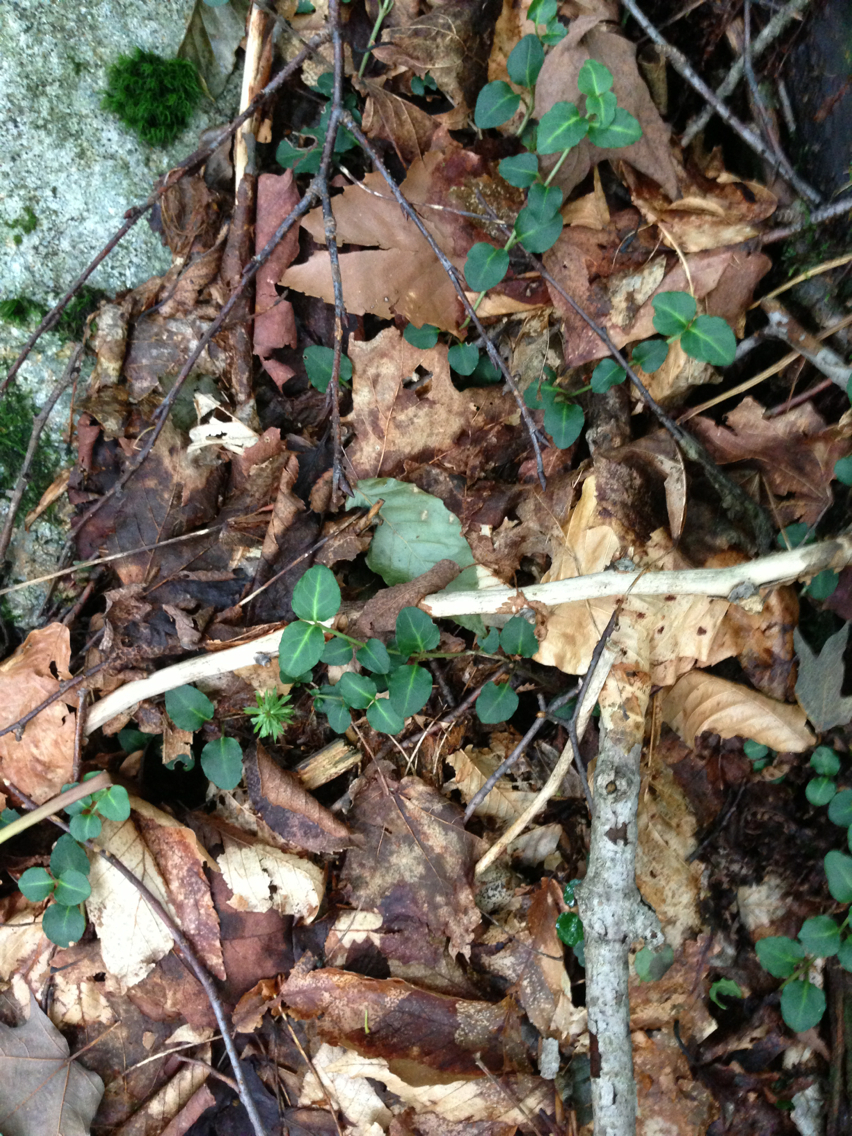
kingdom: Plantae
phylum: Tracheophyta
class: Magnoliopsida
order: Gentianales
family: Rubiaceae
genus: Mitchella
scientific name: Mitchella repens
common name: Partridge-berry
